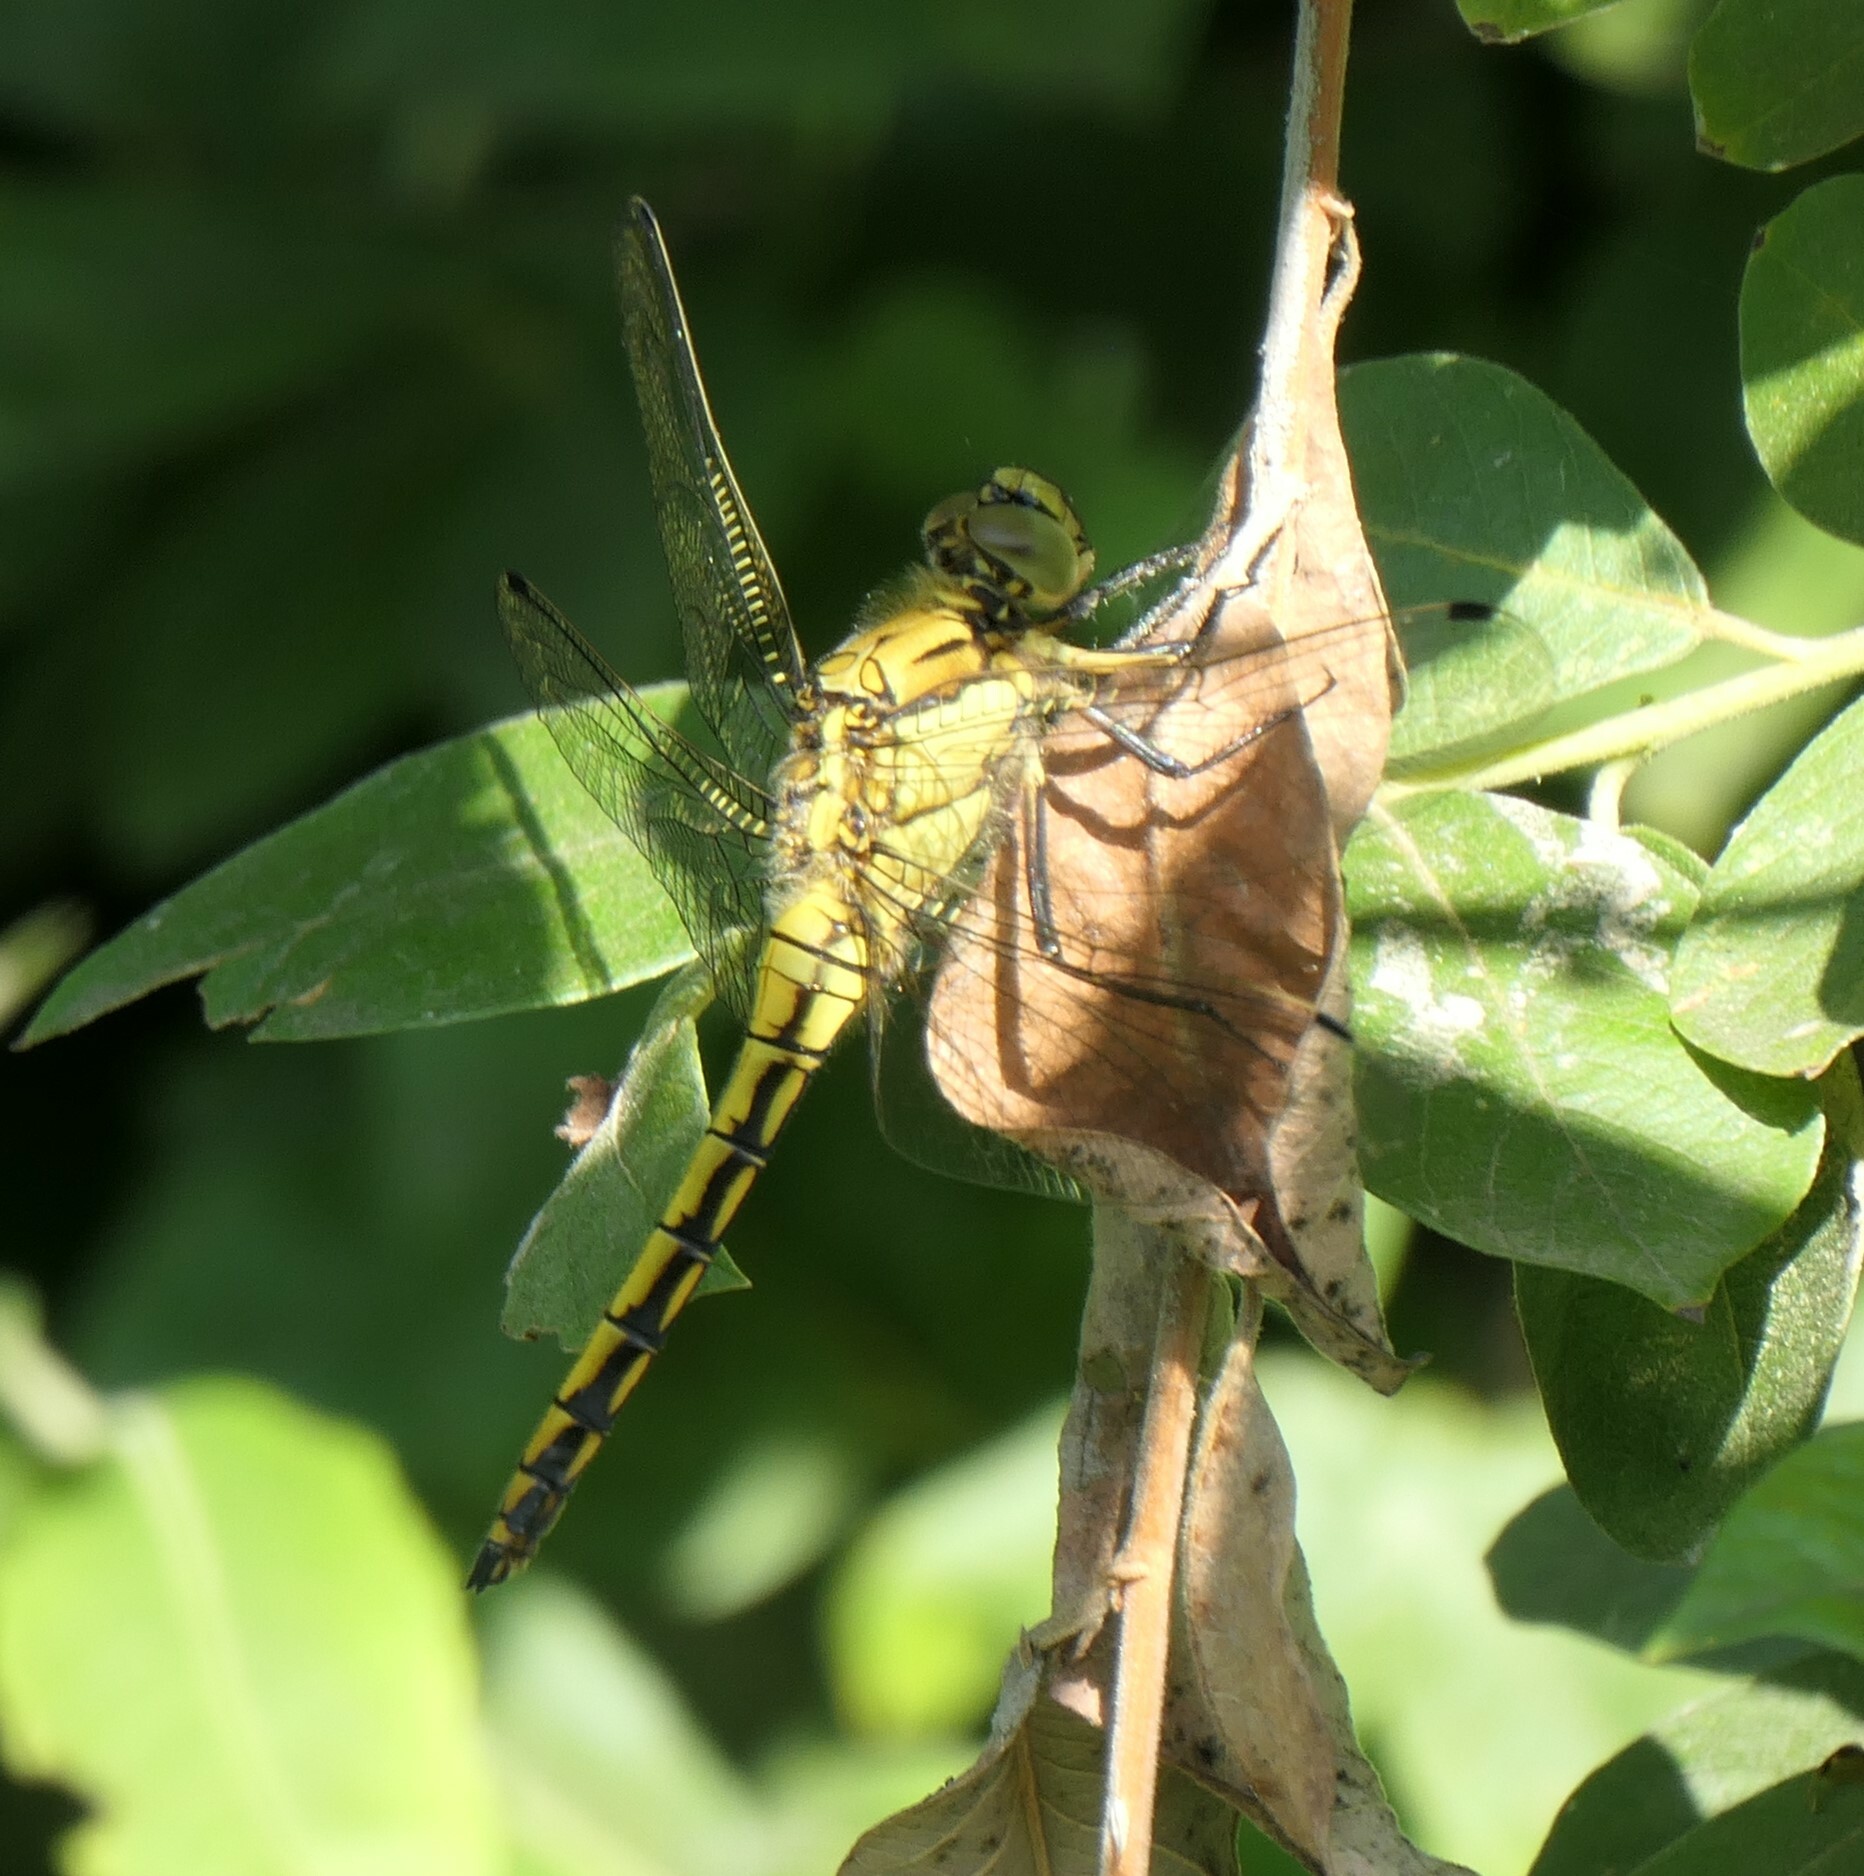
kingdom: Animalia
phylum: Arthropoda
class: Insecta
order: Odonata
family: Libellulidae
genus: Orthetrum
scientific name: Orthetrum cancellatum
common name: Black-tailed skimmer
